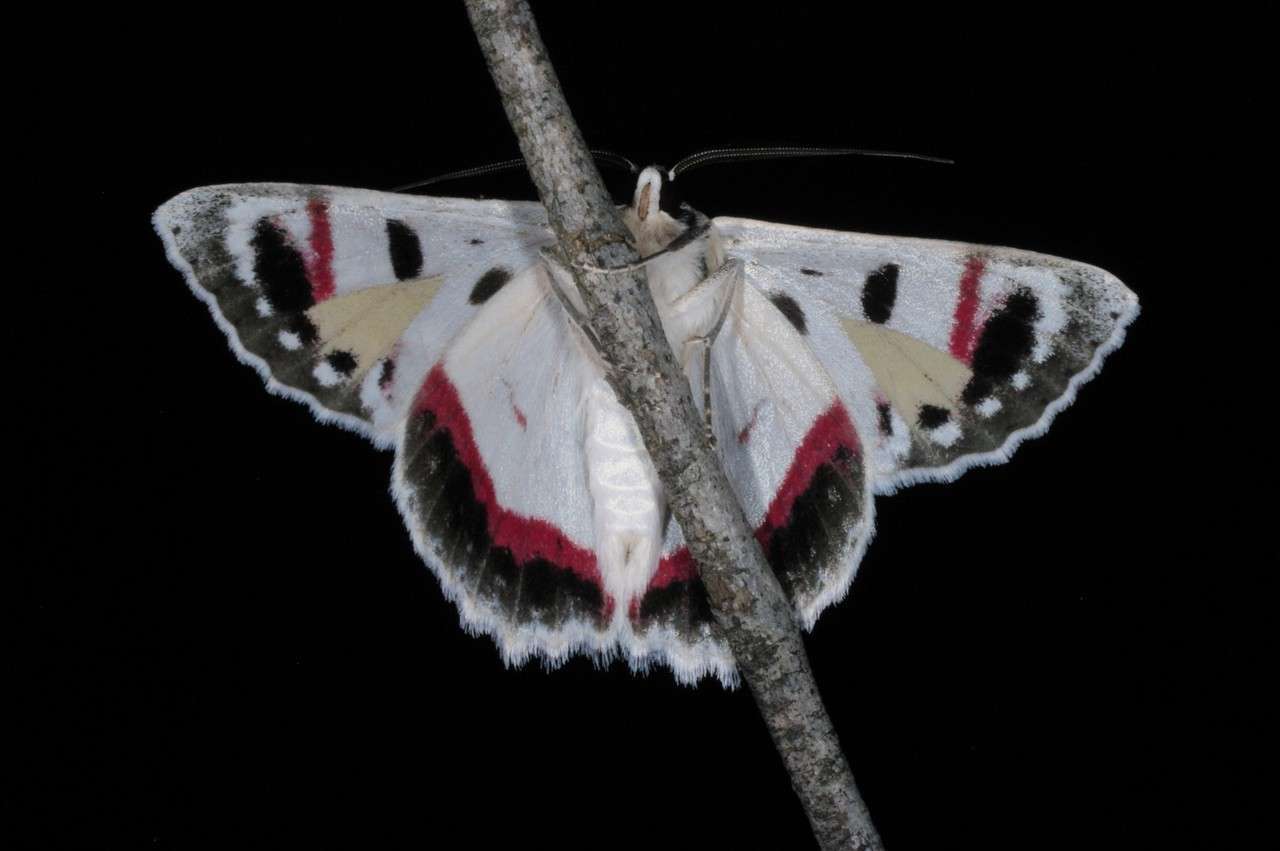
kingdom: Animalia
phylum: Arthropoda
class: Insecta
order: Lepidoptera
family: Geometridae
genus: Crypsiphona
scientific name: Crypsiphona ocultaria
